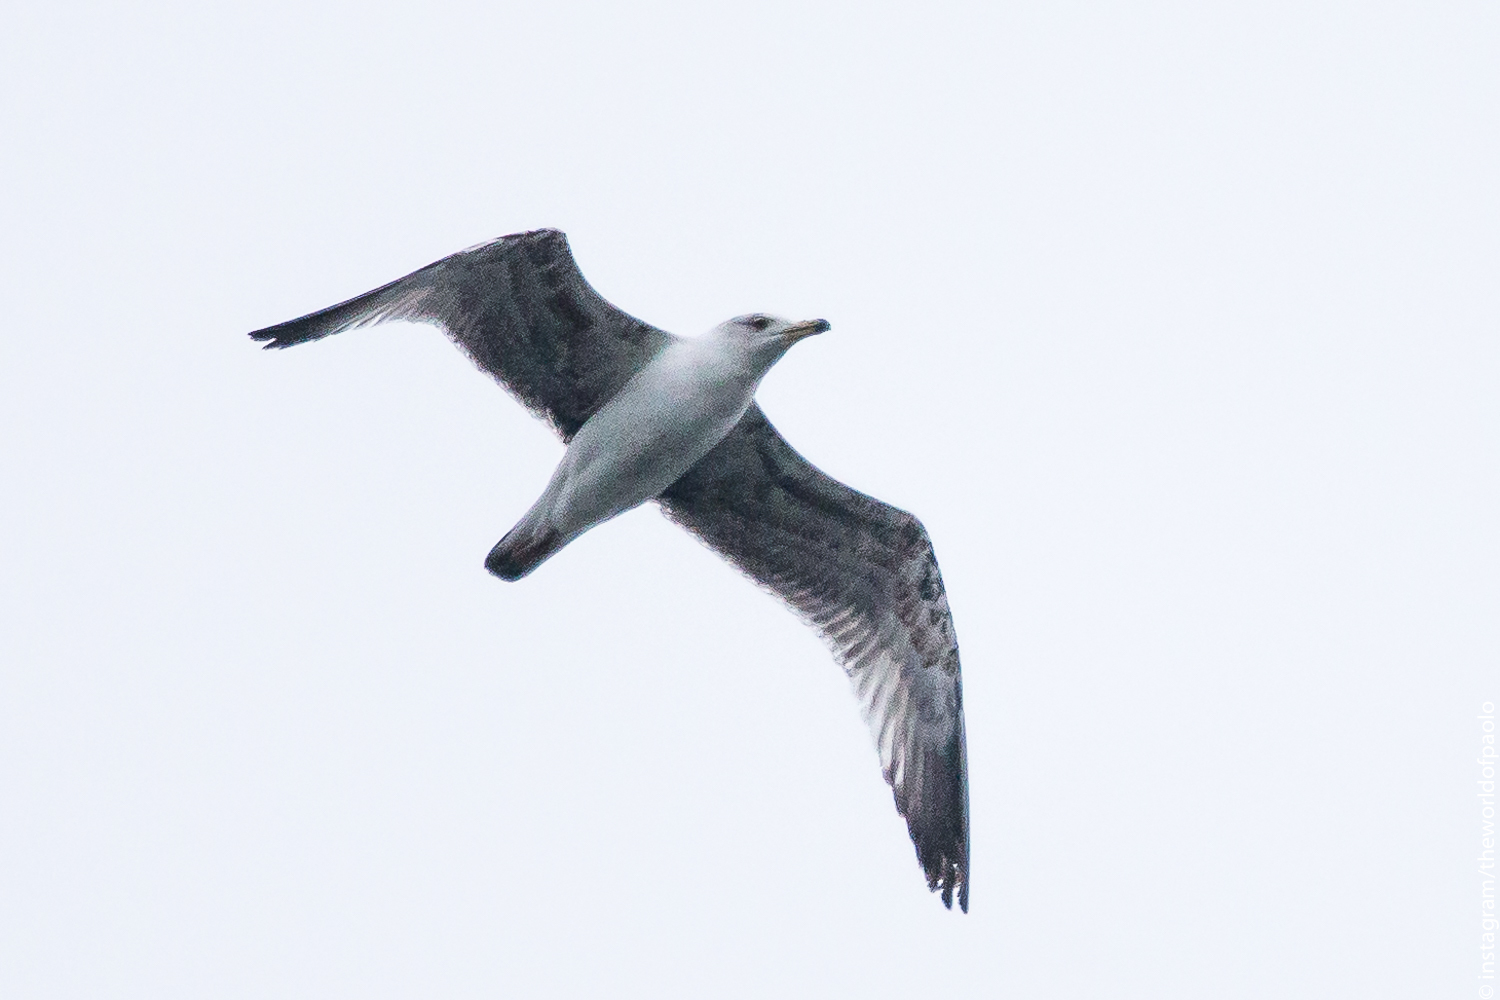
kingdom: Animalia
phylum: Chordata
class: Aves
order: Charadriiformes
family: Laridae
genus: Larus
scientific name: Larus michahellis
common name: Yellow-legged gull
